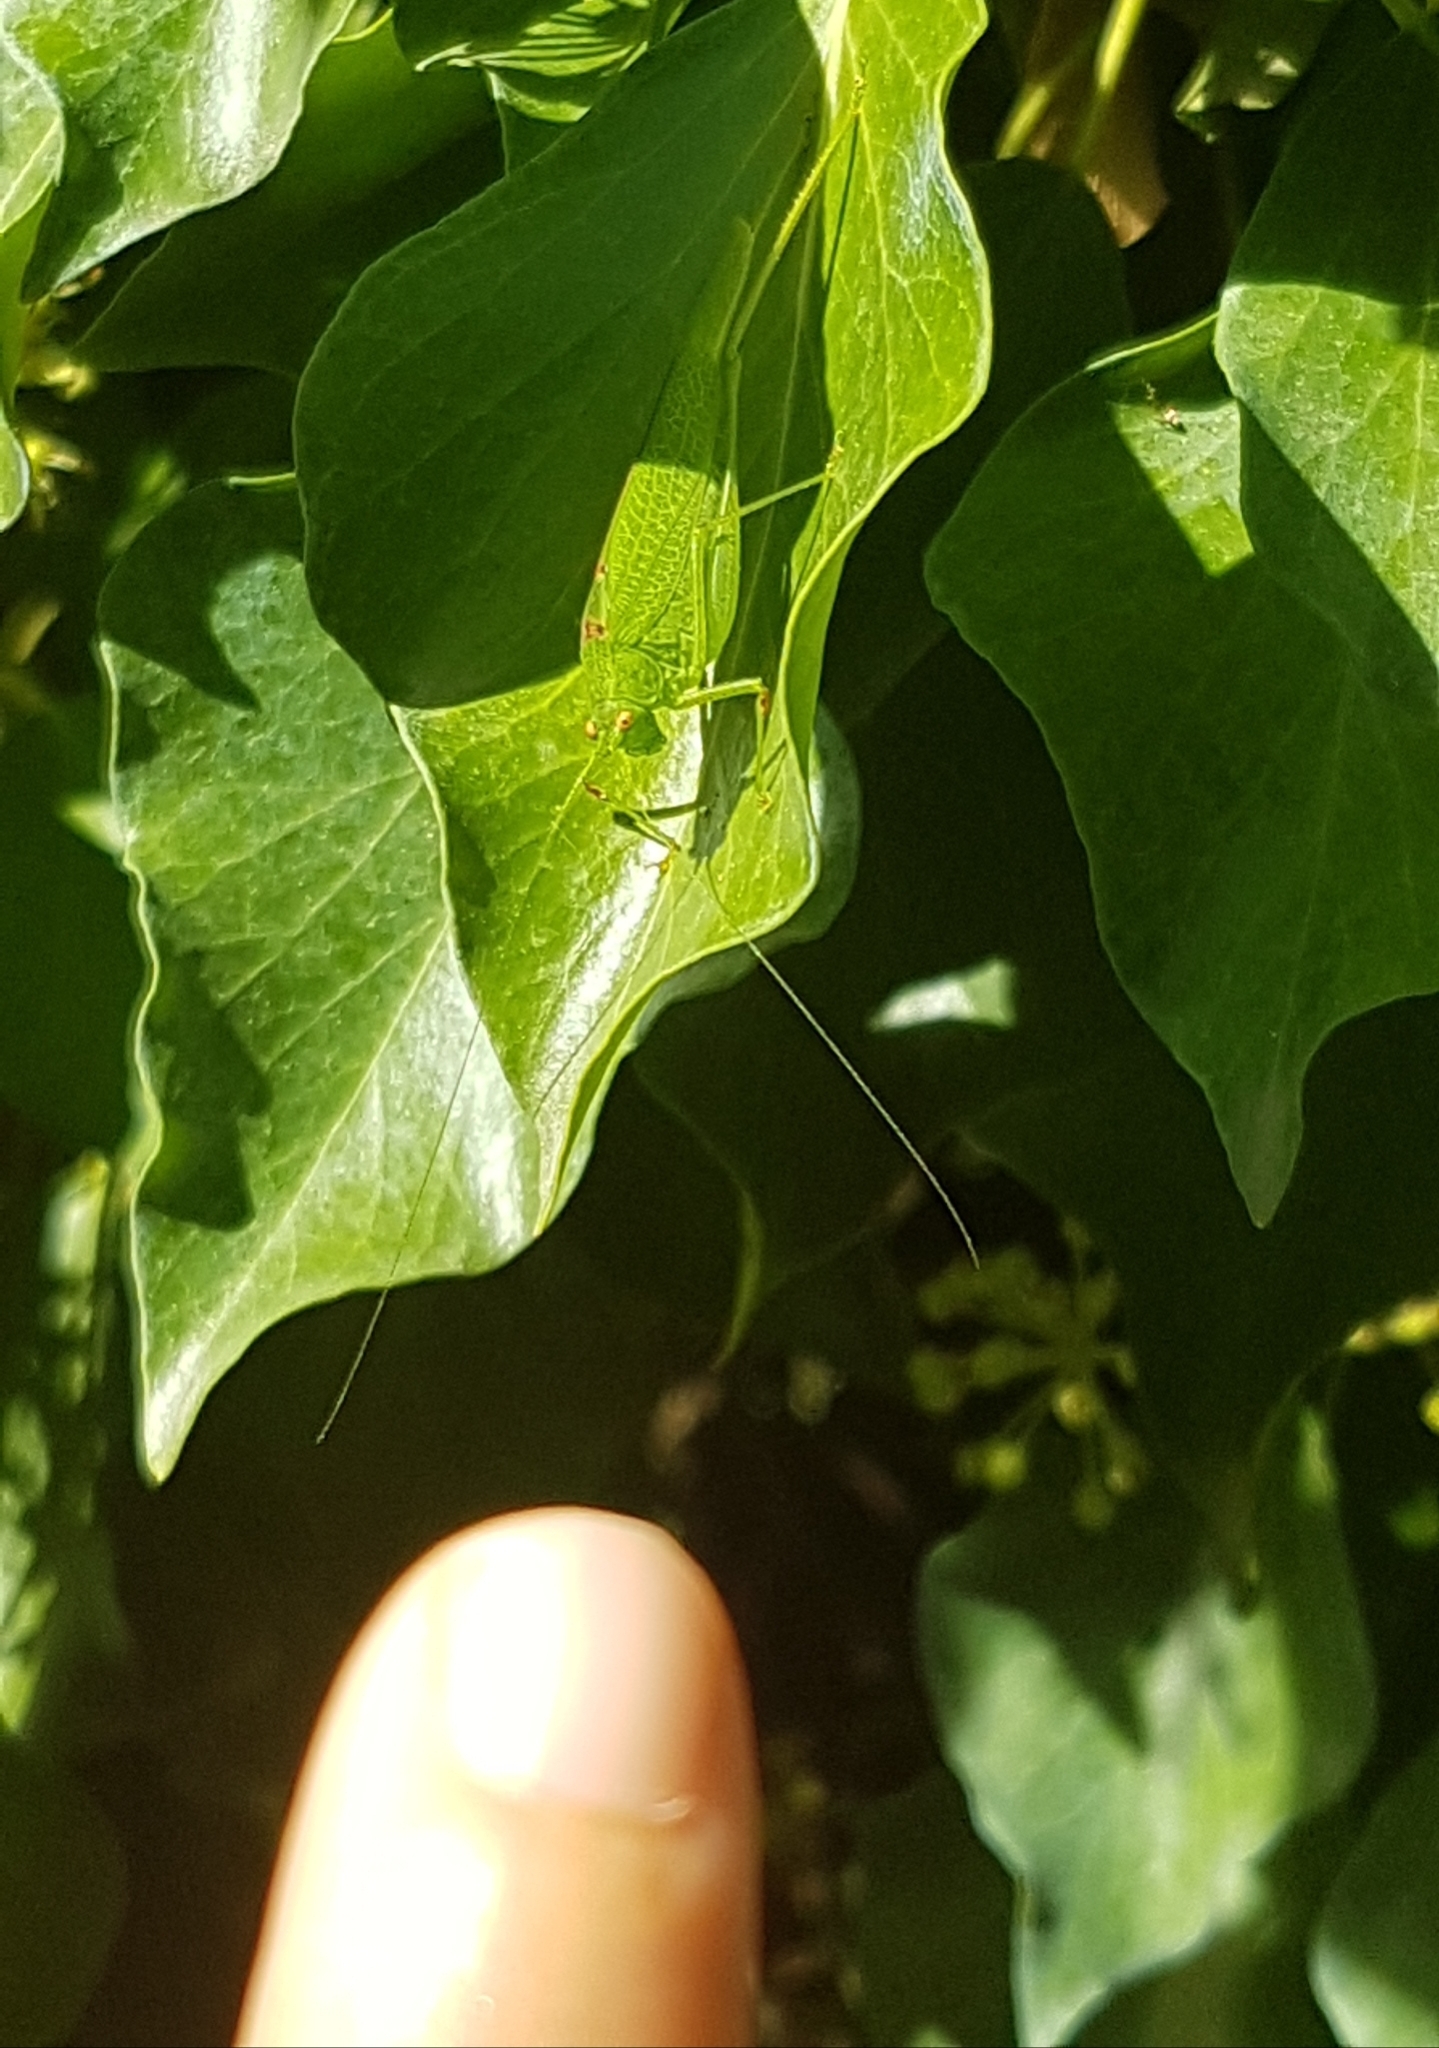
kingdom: Animalia
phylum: Arthropoda
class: Insecta
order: Orthoptera
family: Tettigoniidae
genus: Phaneroptera
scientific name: Phaneroptera nana
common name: Southern sickle bush-cricket
